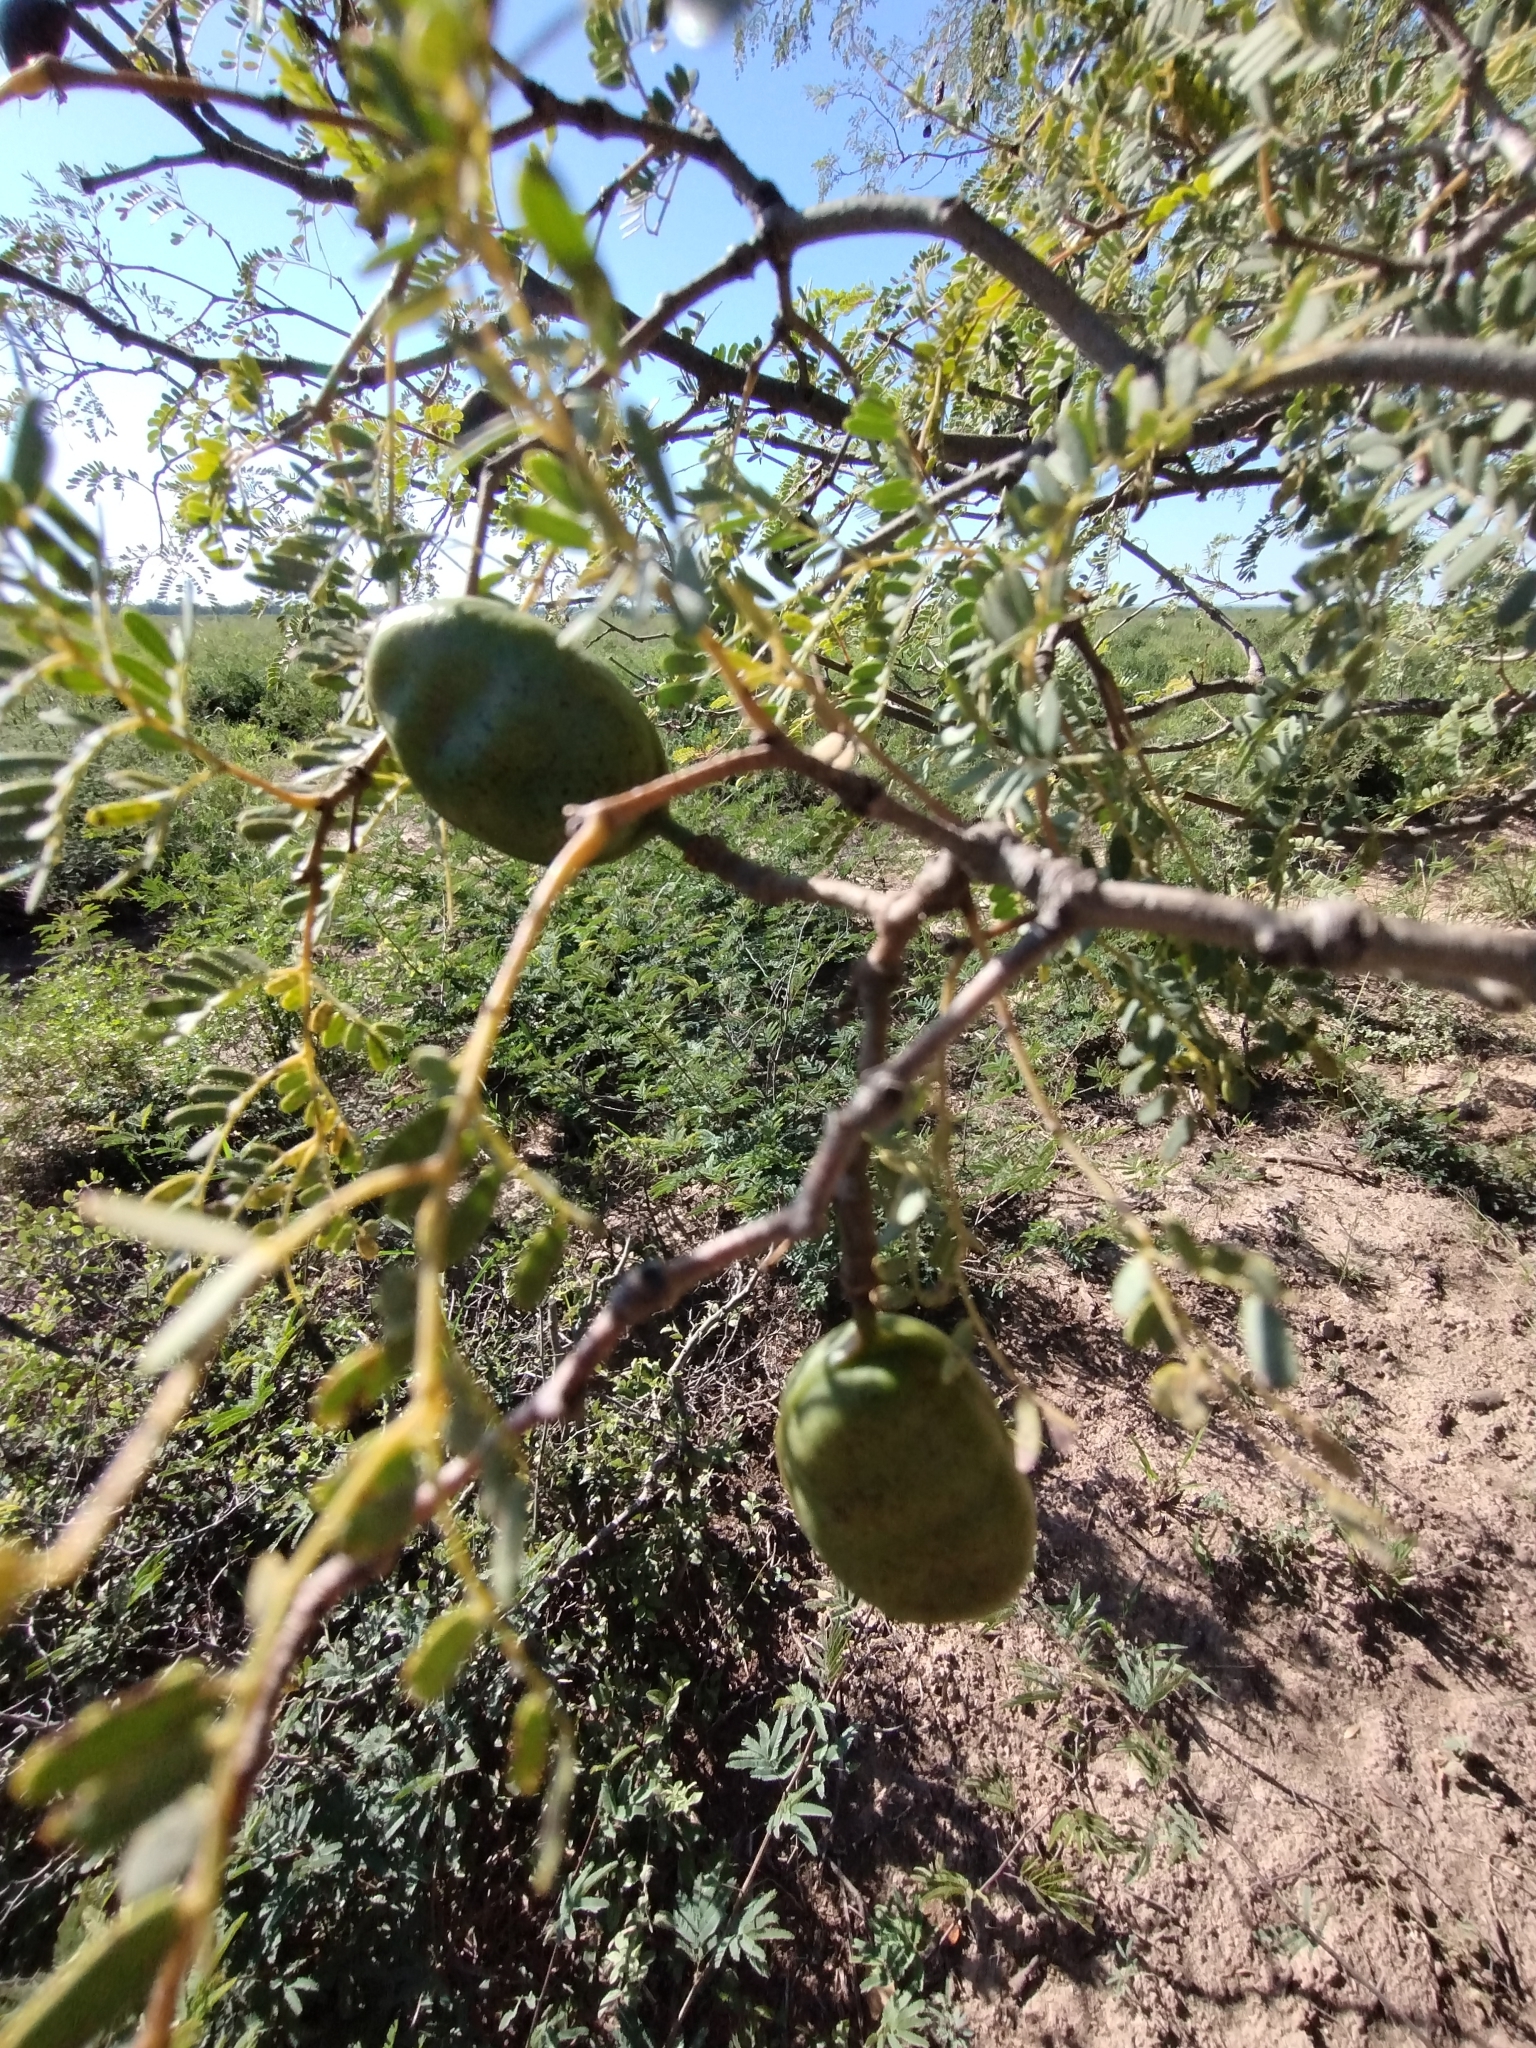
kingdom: Plantae
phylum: Tracheophyta
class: Magnoliopsida
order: Fabales
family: Fabaceae
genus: Libidibia
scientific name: Libidibia paraguariensis
